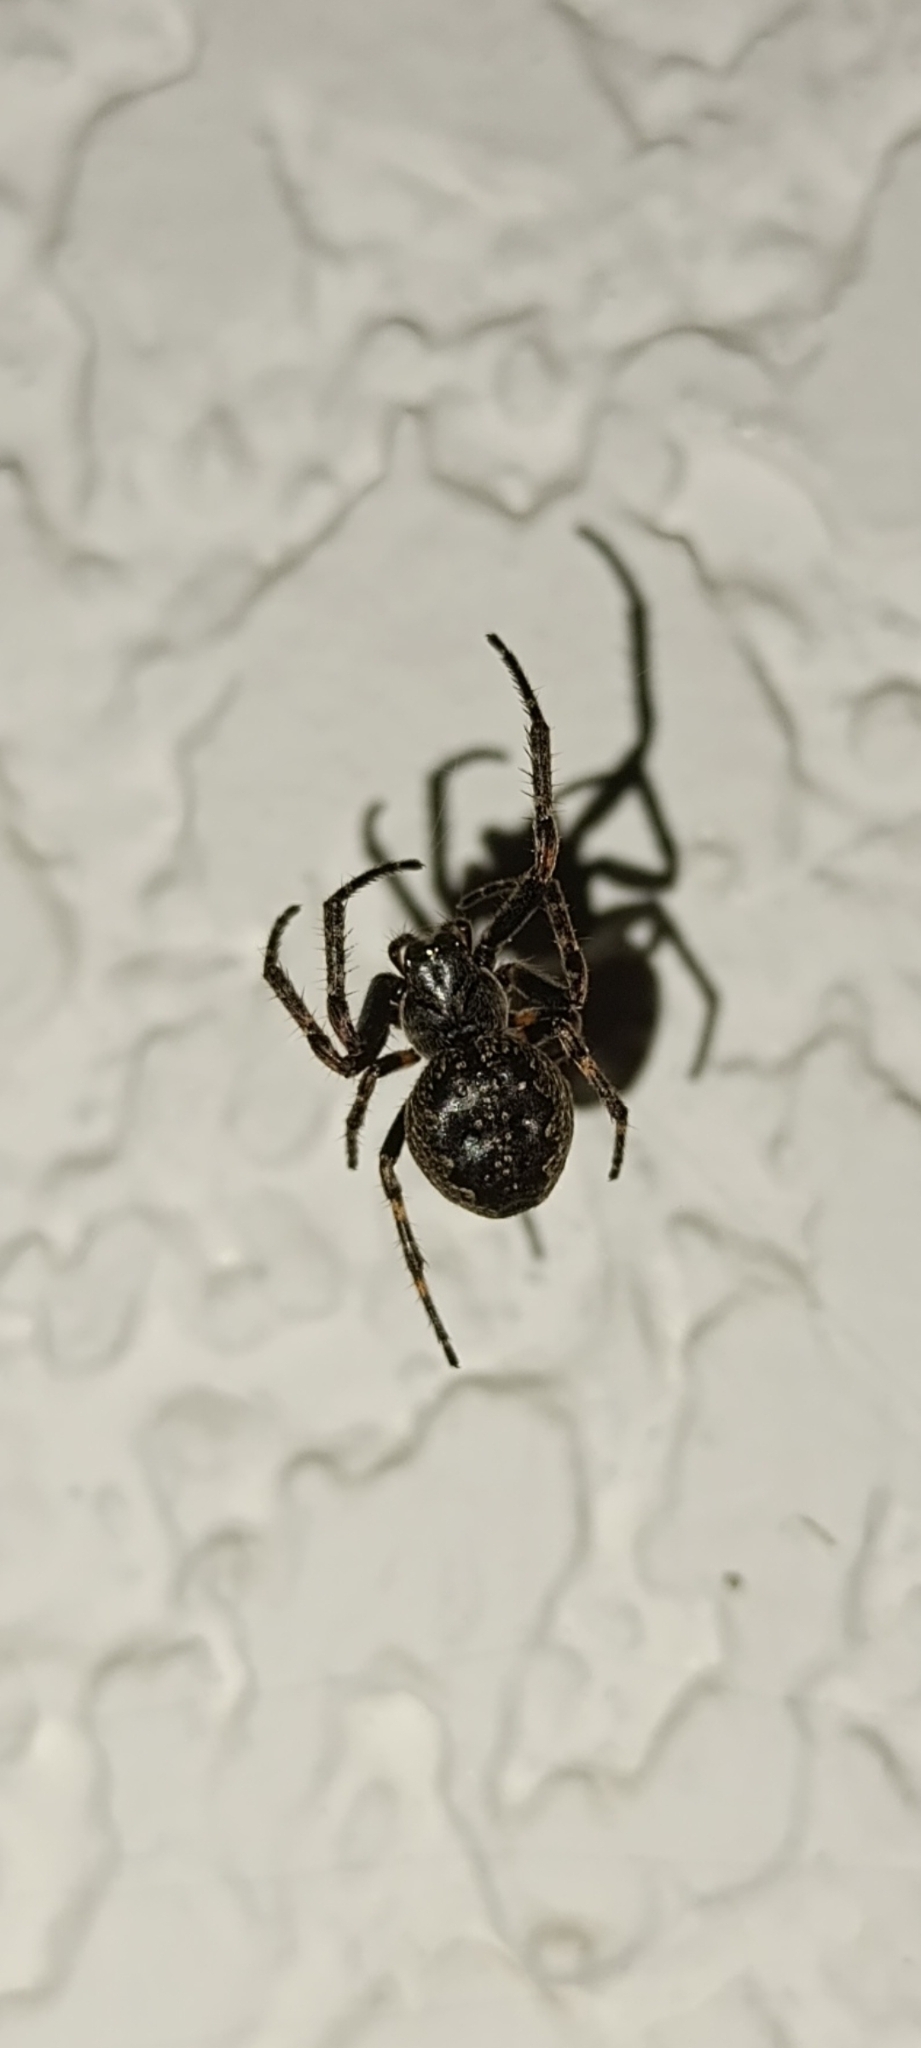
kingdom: Animalia
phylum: Arthropoda
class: Arachnida
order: Araneae
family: Araneidae
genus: Nuctenea
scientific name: Nuctenea umbratica
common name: Toad spider
